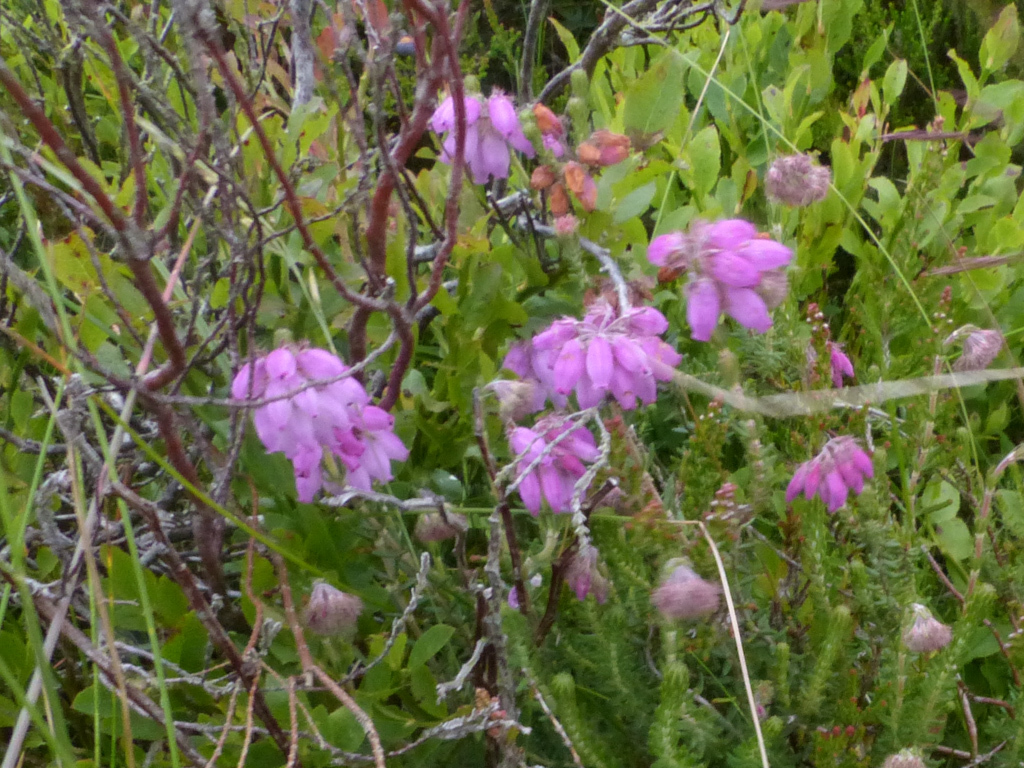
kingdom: Plantae
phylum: Tracheophyta
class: Magnoliopsida
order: Ericales
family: Ericaceae
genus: Erica
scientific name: Erica tetralix
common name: Cross-leaved heath
